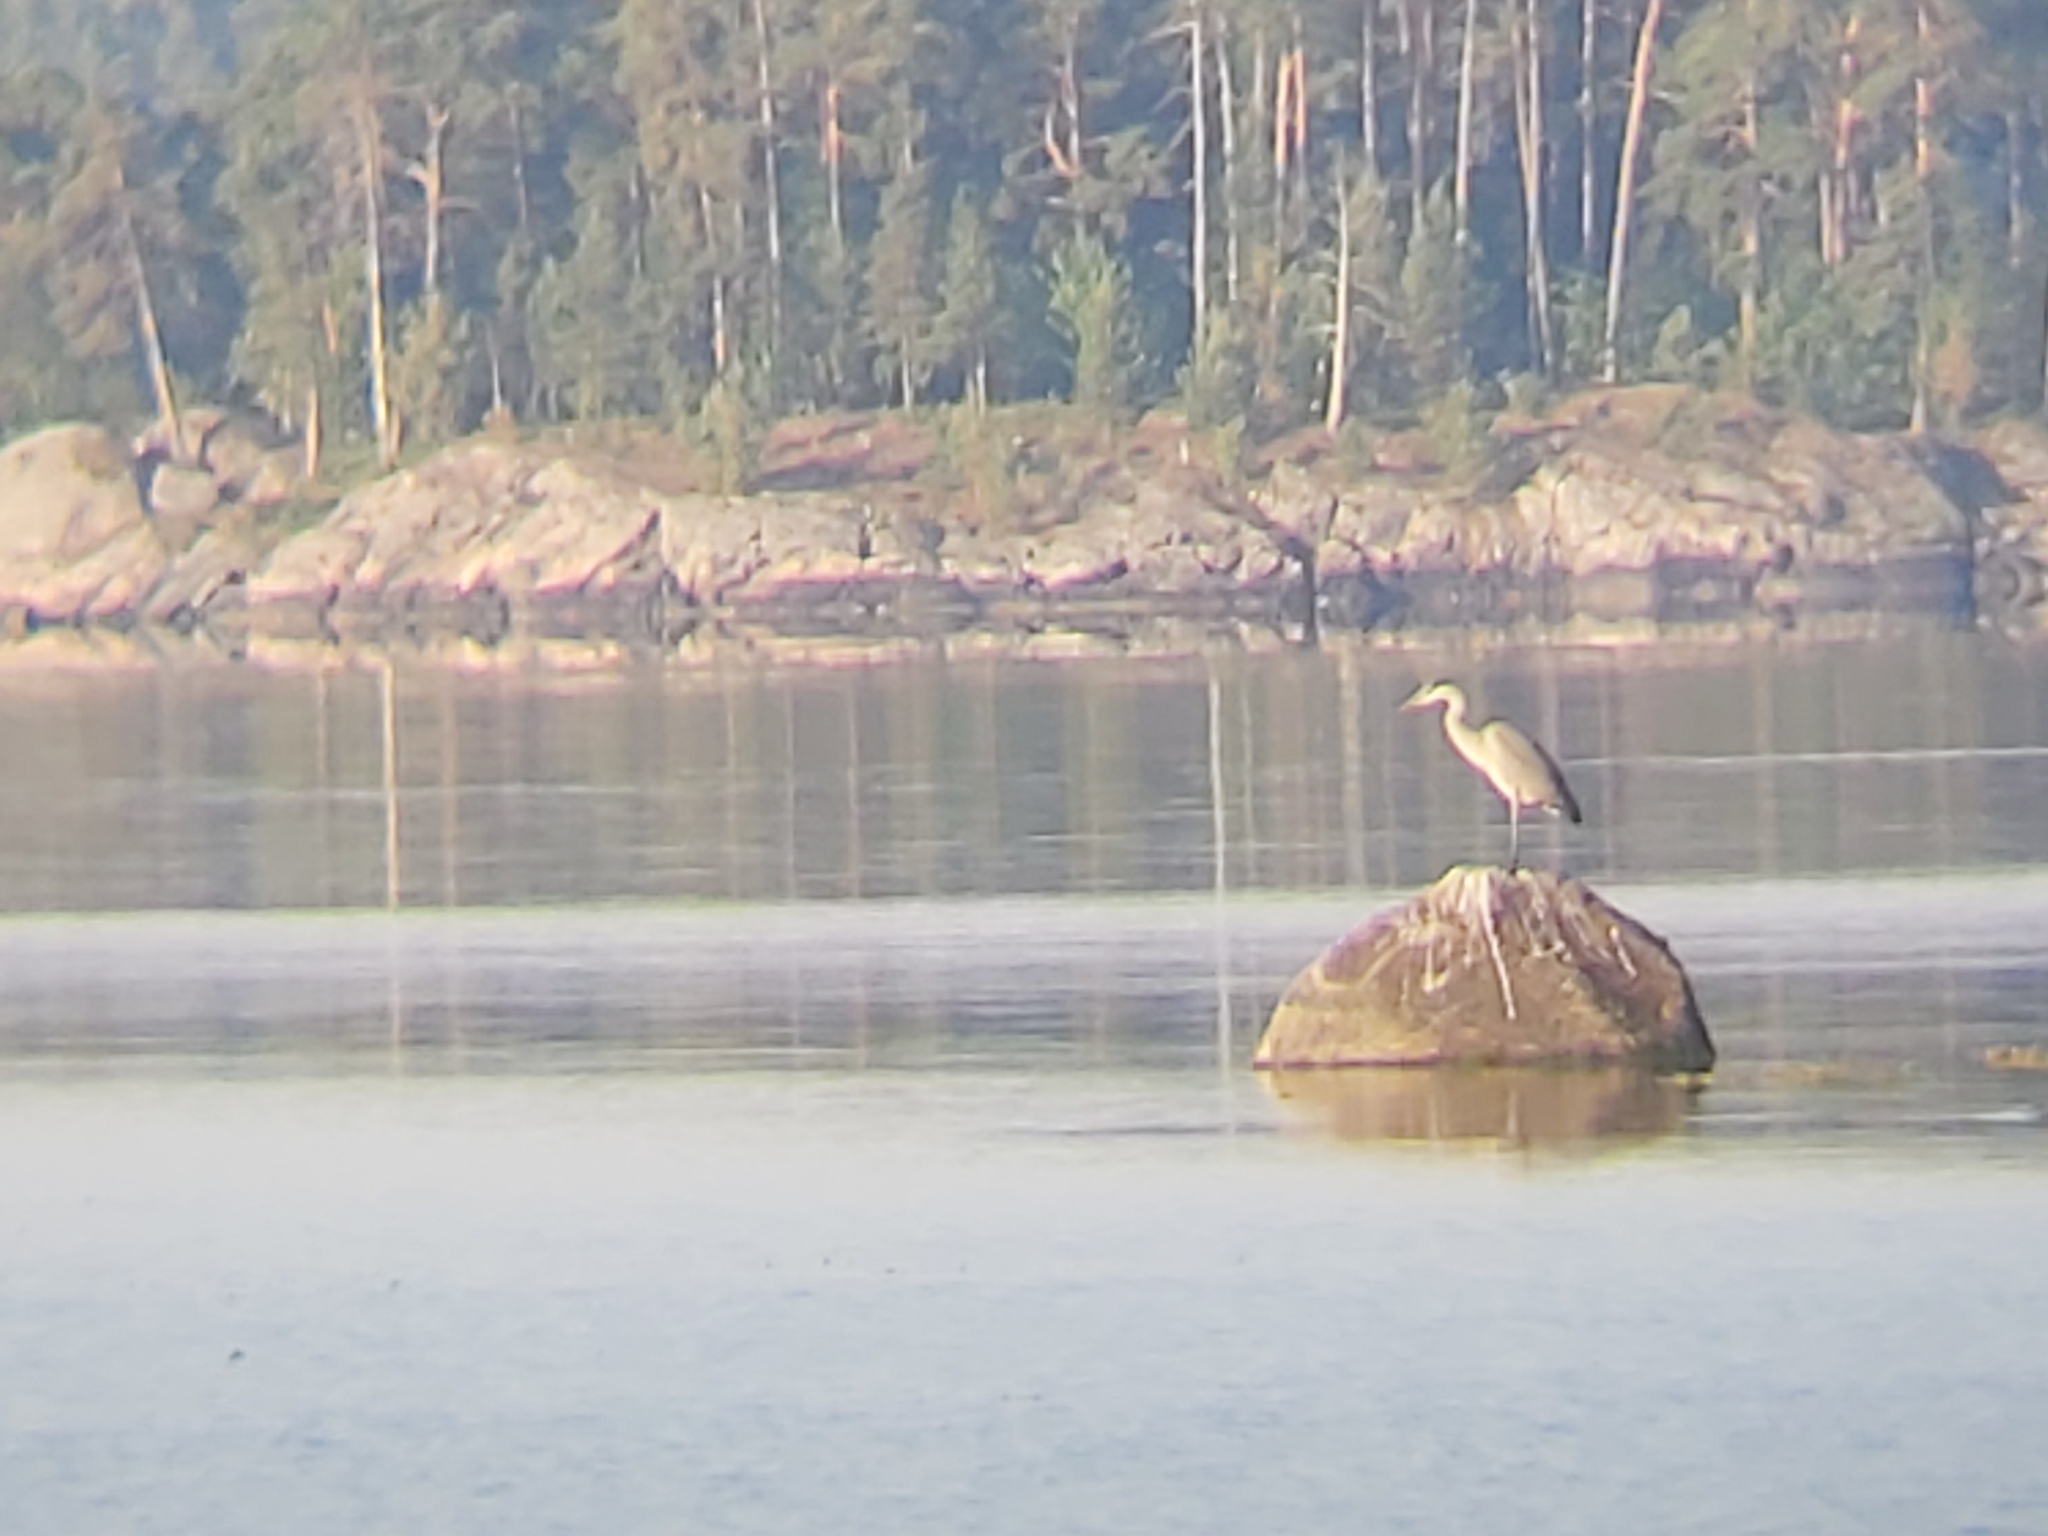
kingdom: Animalia
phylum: Chordata
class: Aves
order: Pelecaniformes
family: Ardeidae
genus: Ardea
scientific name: Ardea cinerea
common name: Grey heron
